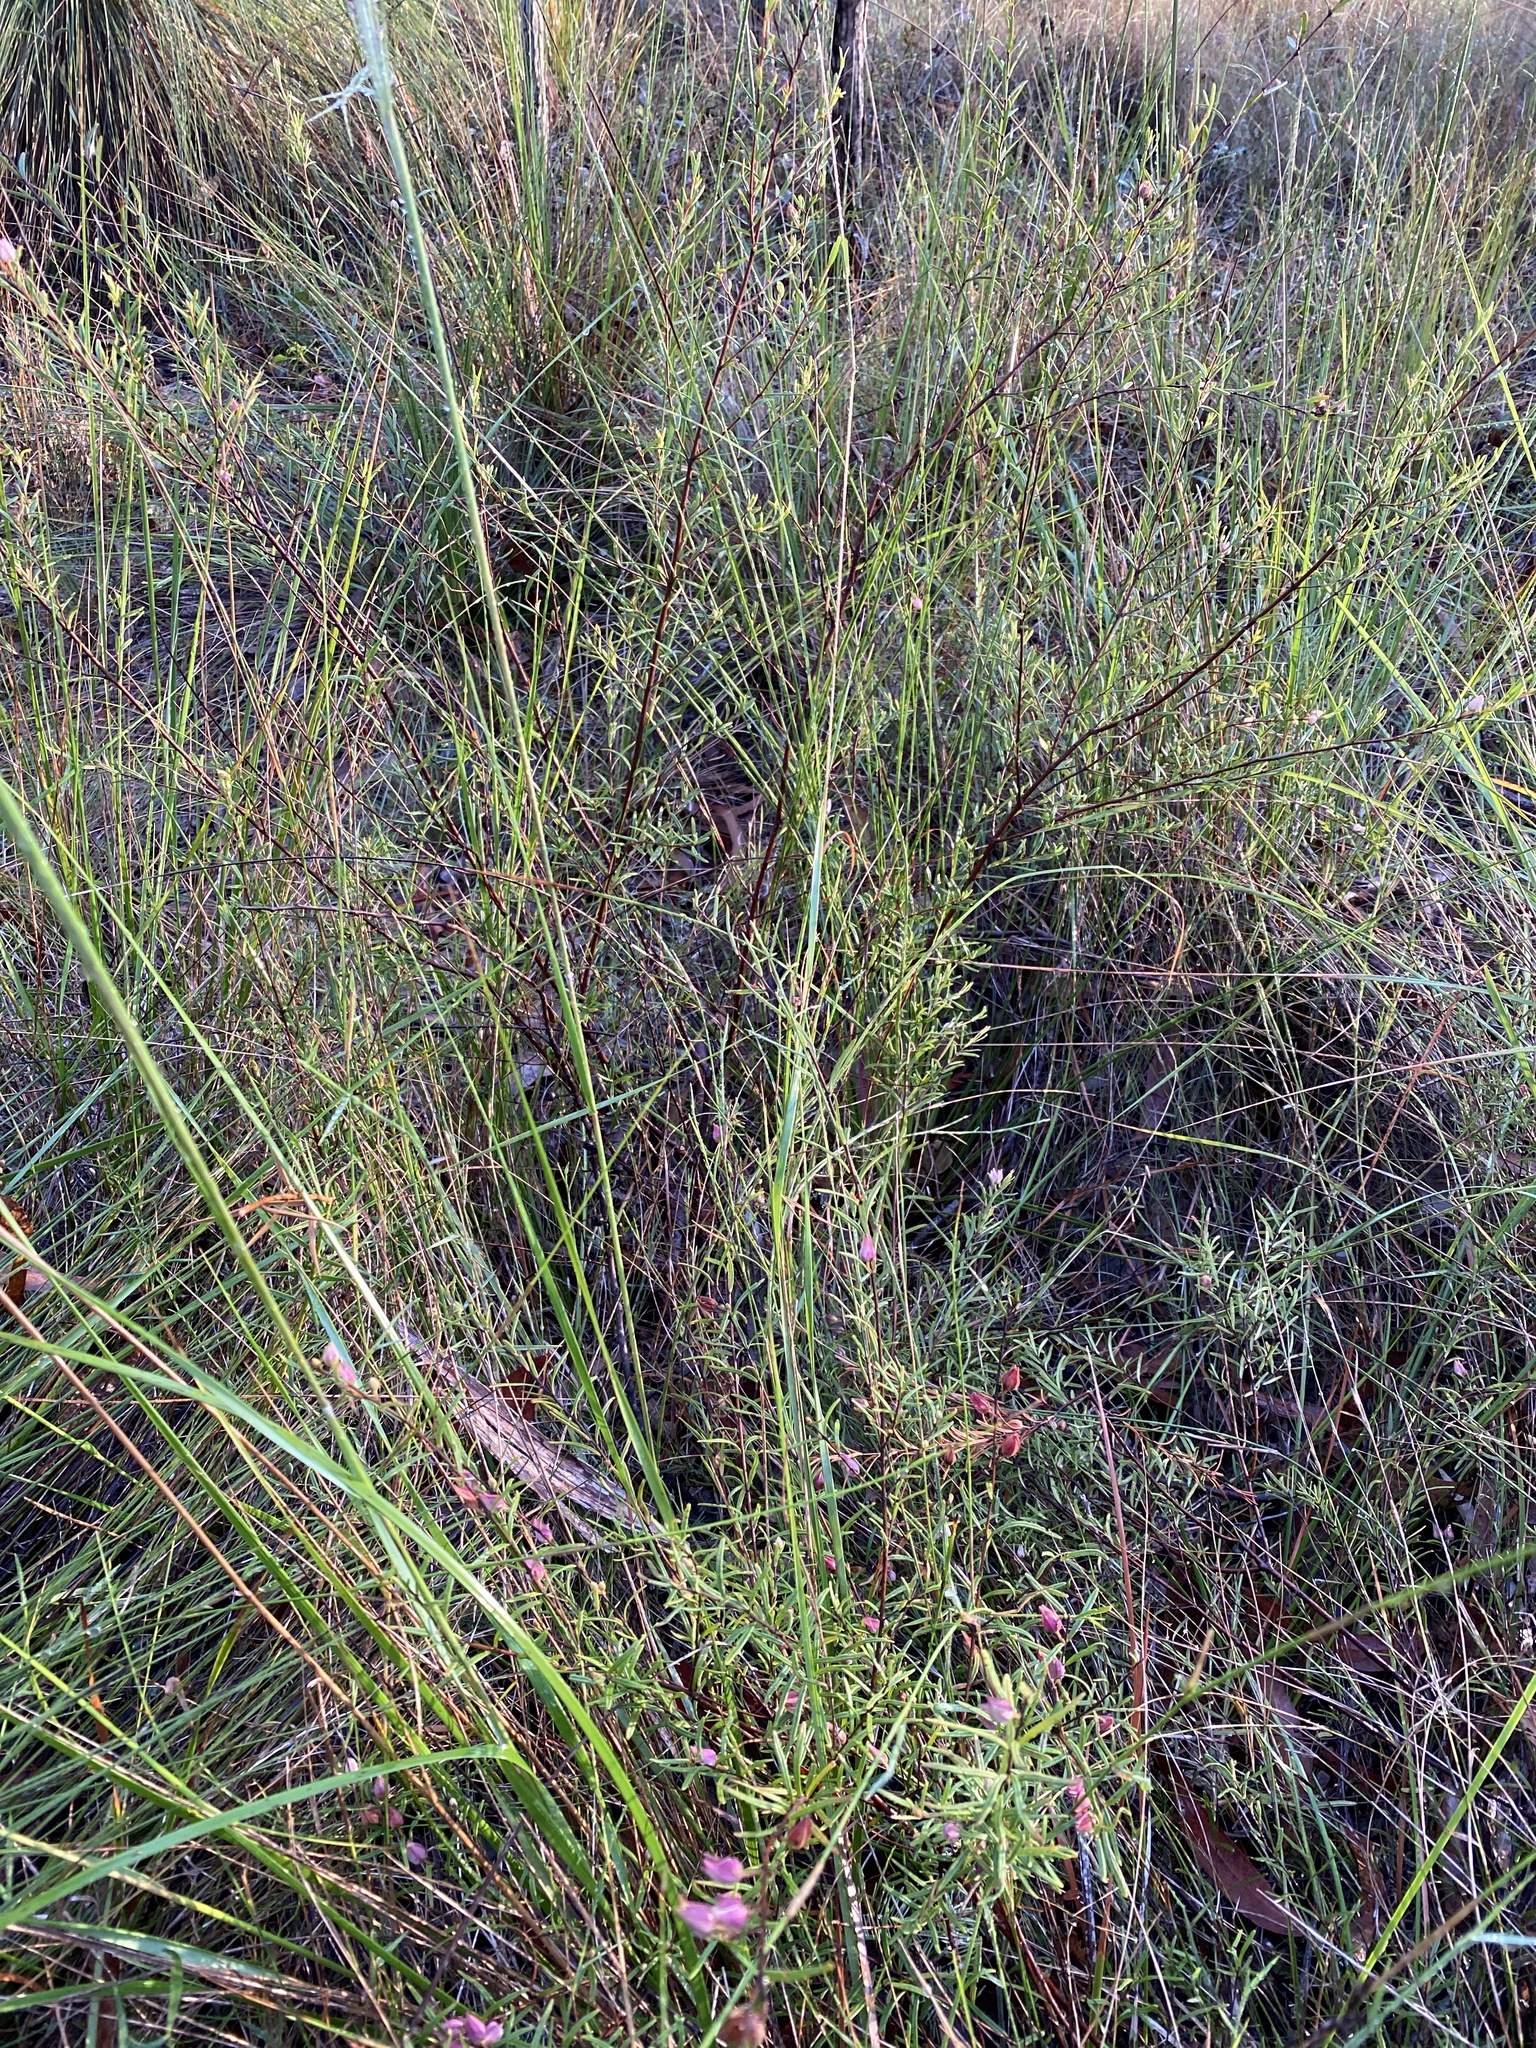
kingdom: Plantae
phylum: Tracheophyta
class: Magnoliopsida
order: Sapindales
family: Rutaceae
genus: Boronia
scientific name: Boronia rosmarinifolia
